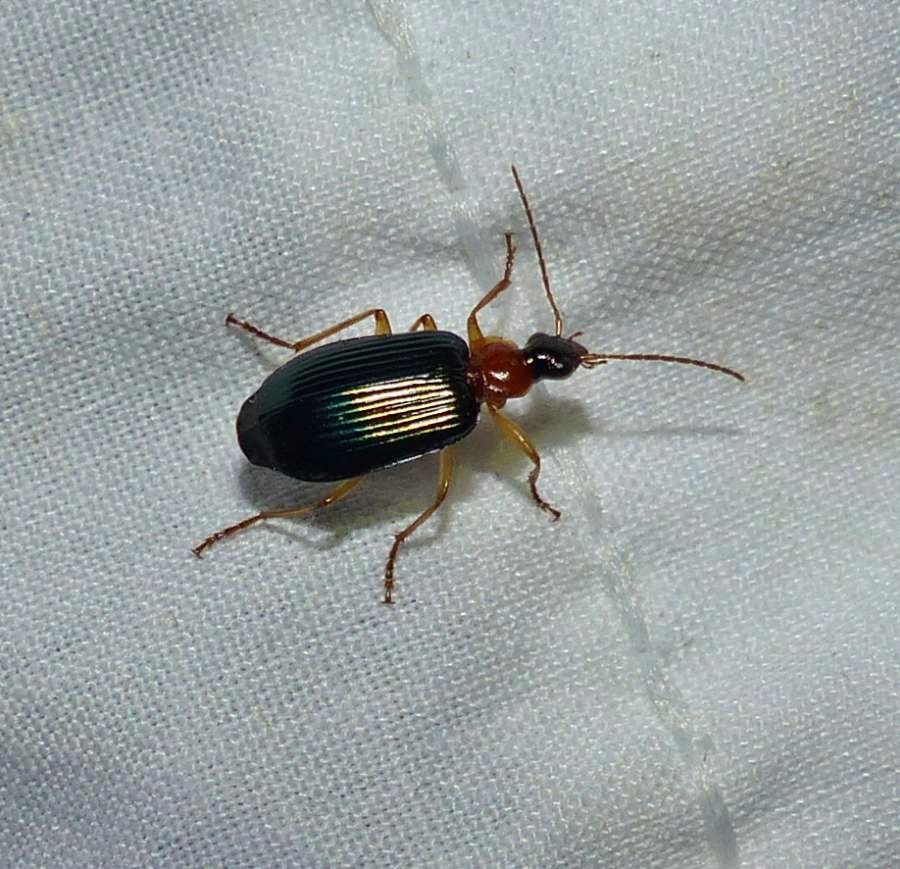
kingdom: Animalia
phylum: Arthropoda
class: Insecta
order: Coleoptera
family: Carabidae
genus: Lebia
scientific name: Lebia tricolor
